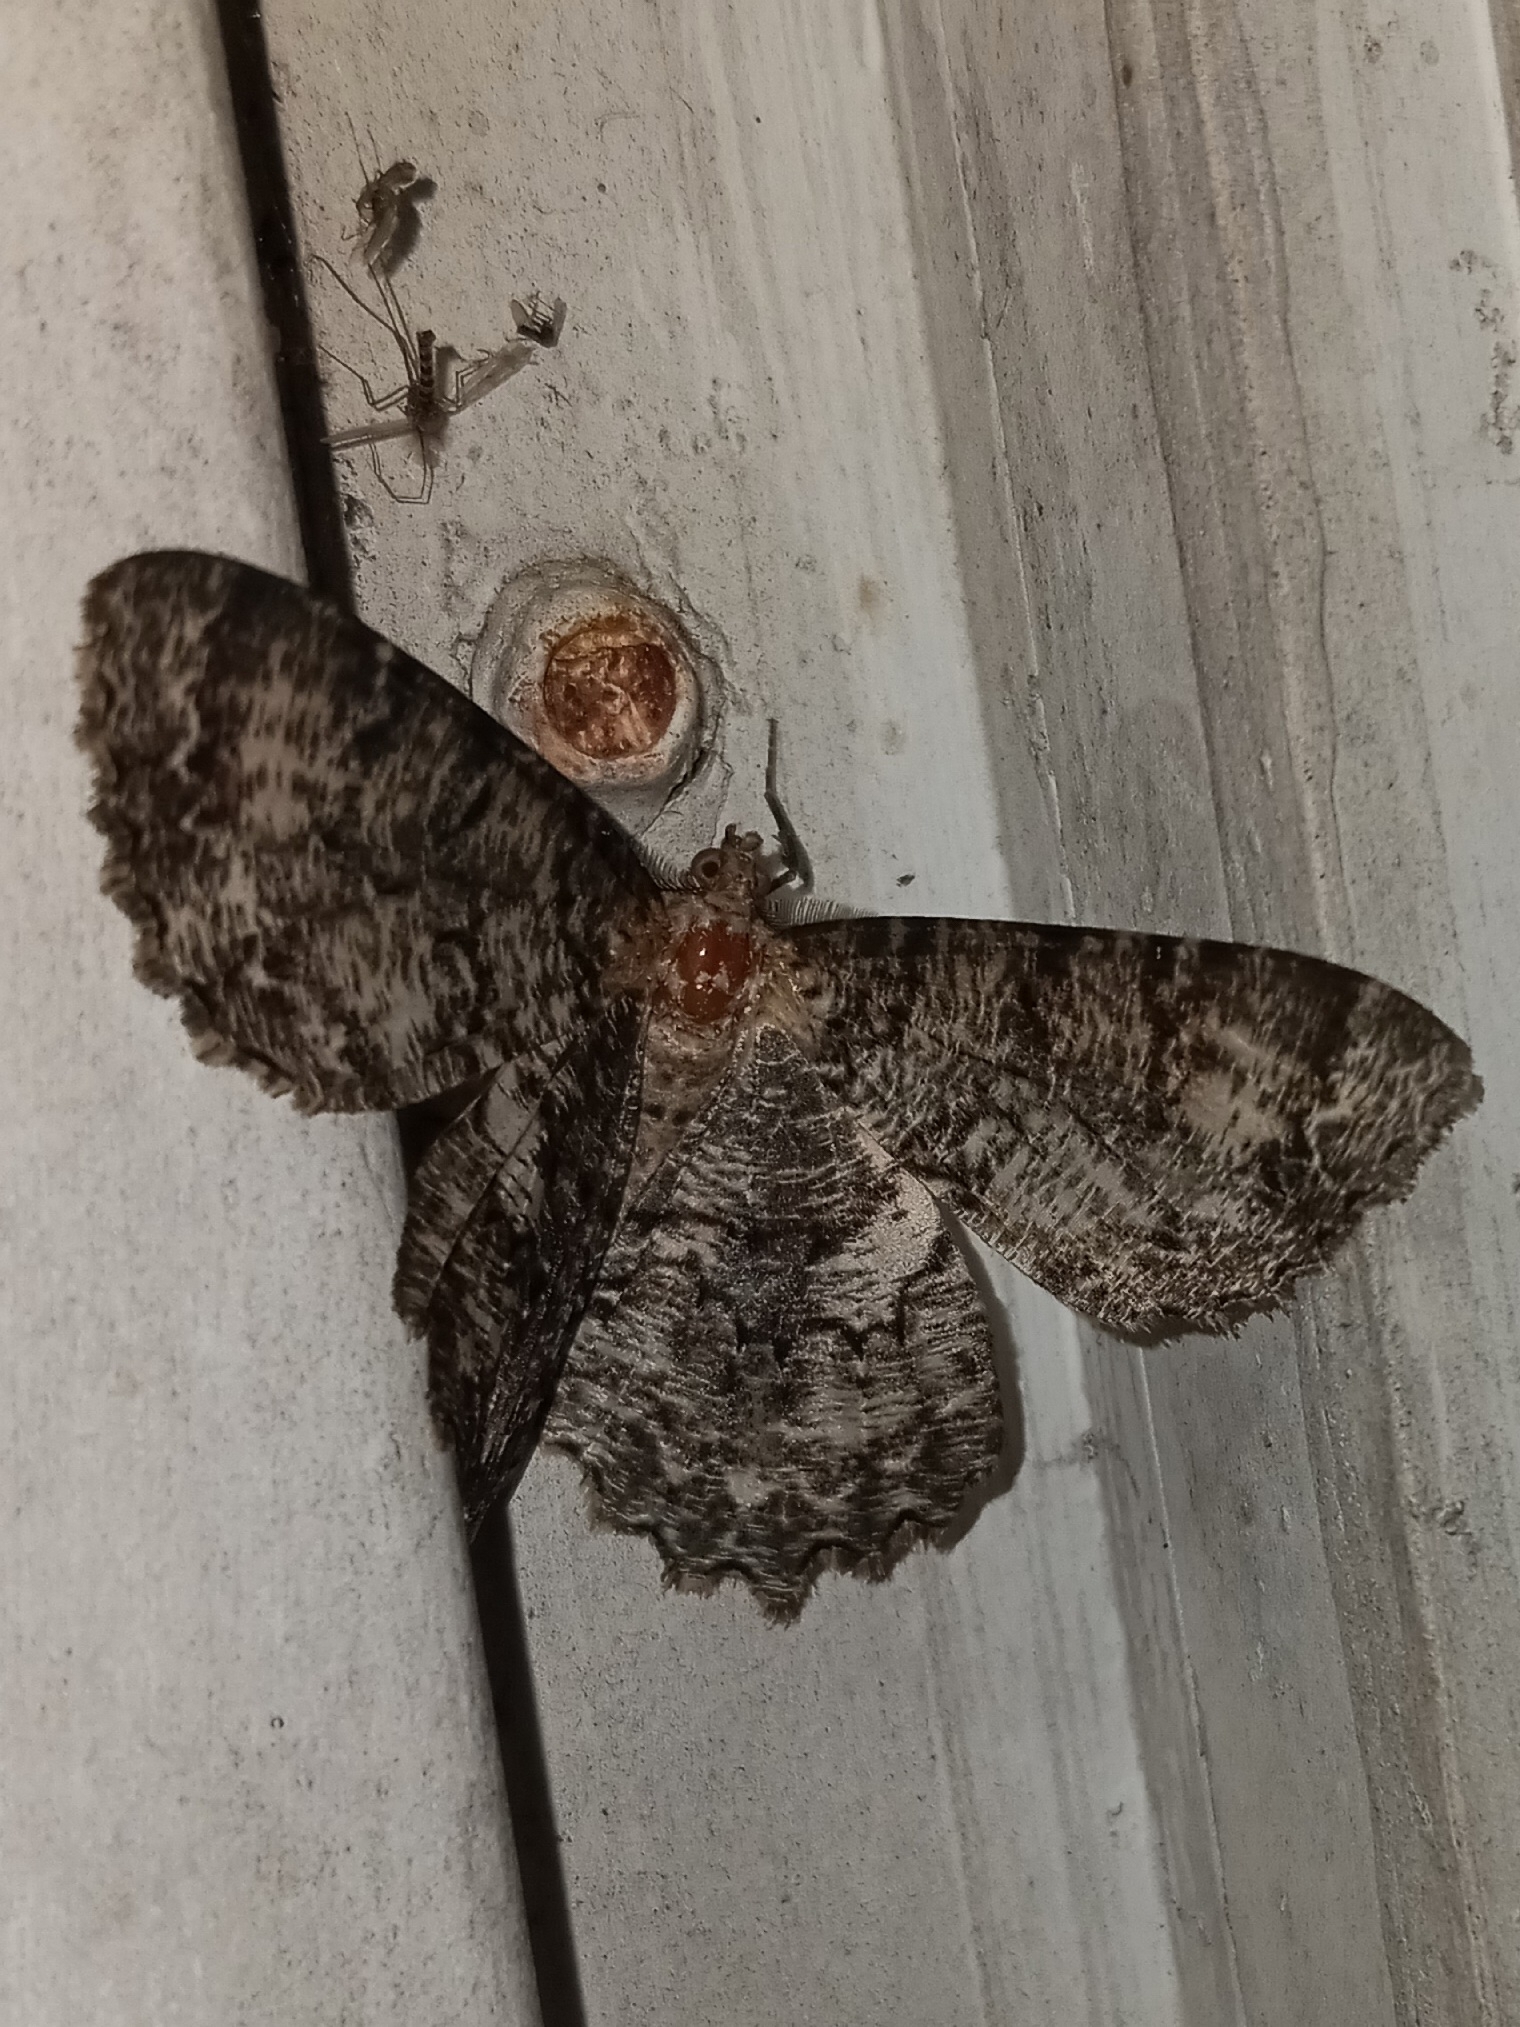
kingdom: Animalia
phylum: Arthropoda
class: Insecta
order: Lepidoptera
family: Geometridae
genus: Epimecis
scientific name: Epimecis hortaria
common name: Tulip-tree beauty
